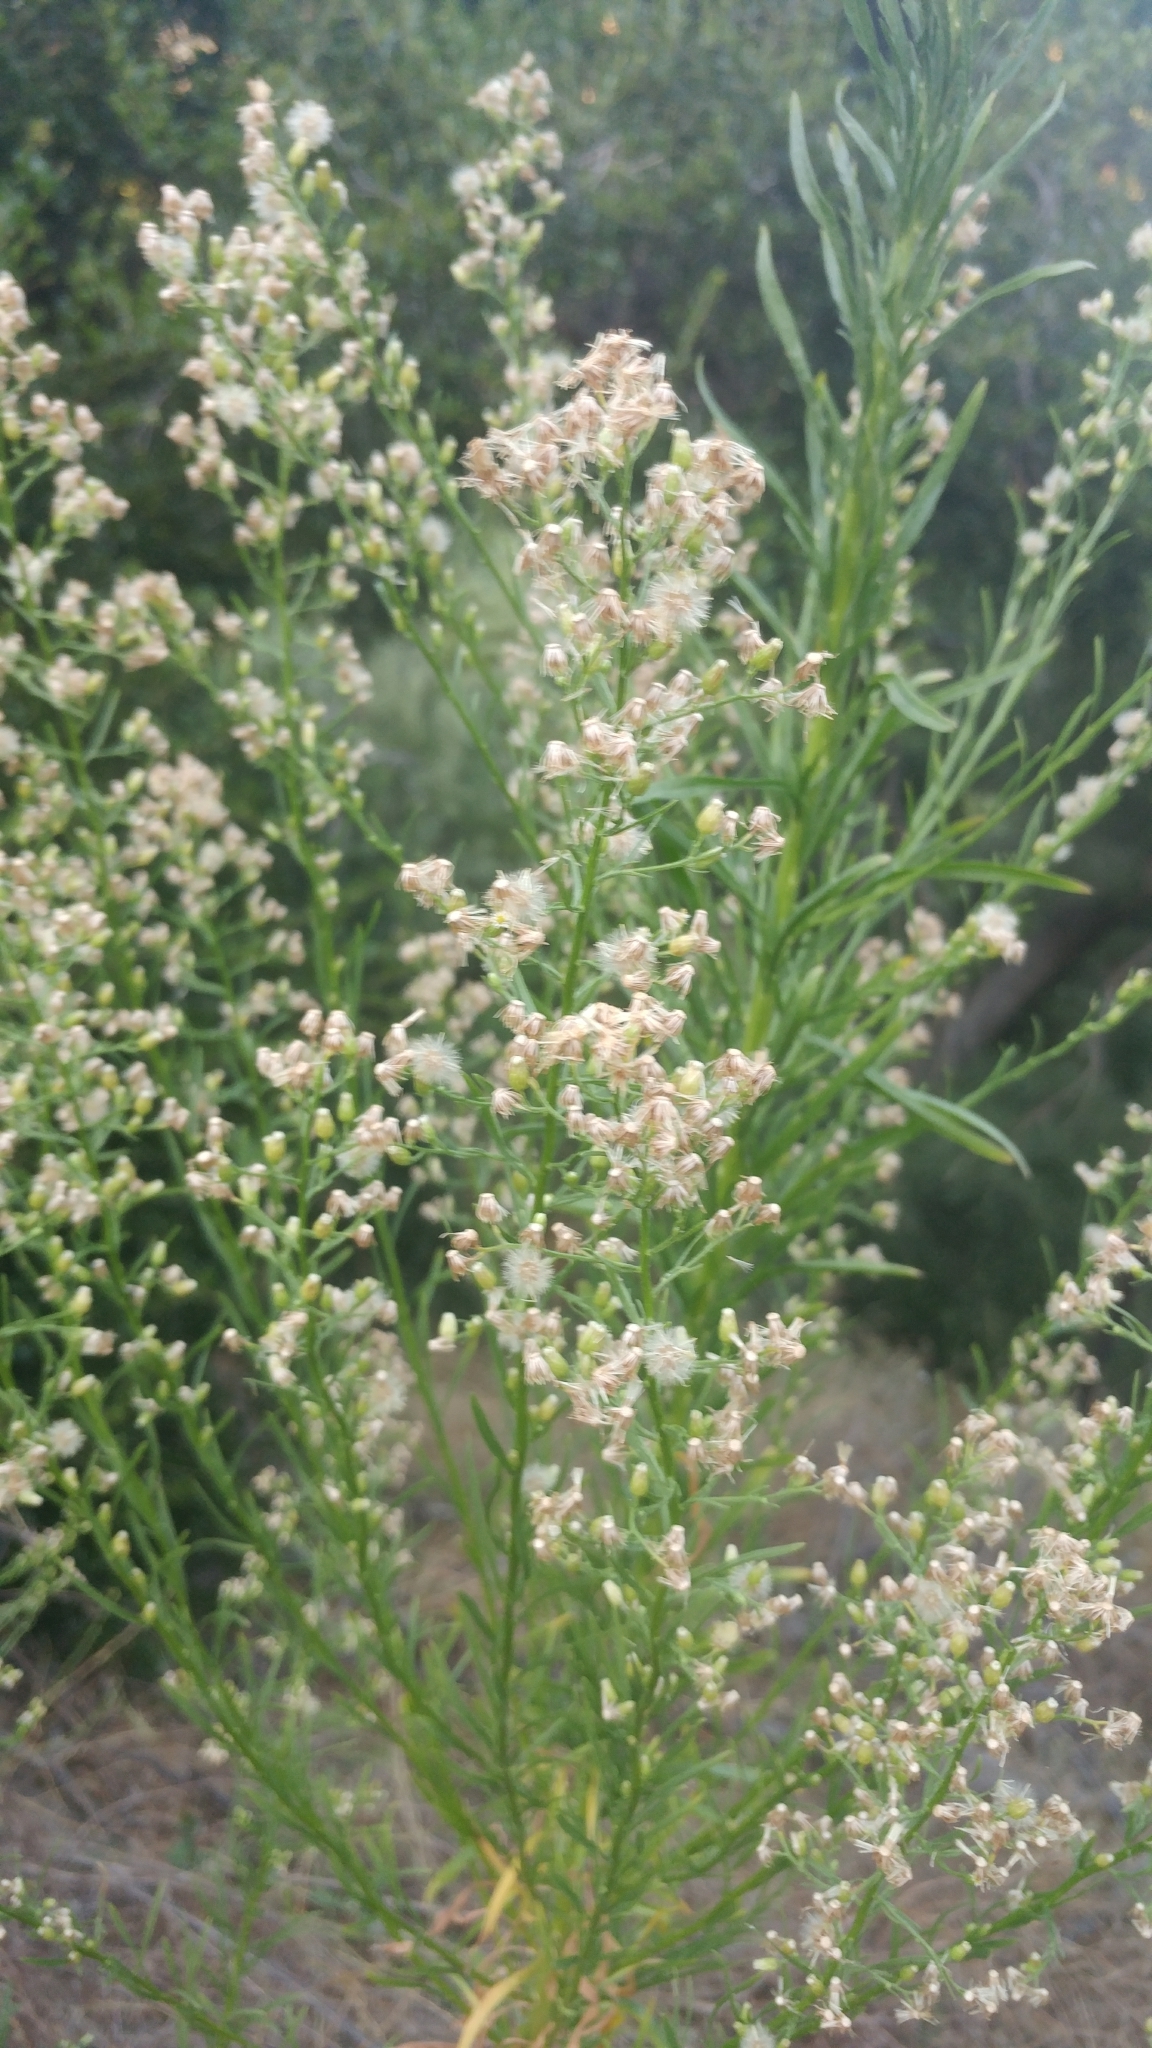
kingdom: Plantae
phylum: Tracheophyta
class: Magnoliopsida
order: Asterales
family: Asteraceae
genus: Erigeron
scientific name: Erigeron canadensis
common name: Canadian fleabane
